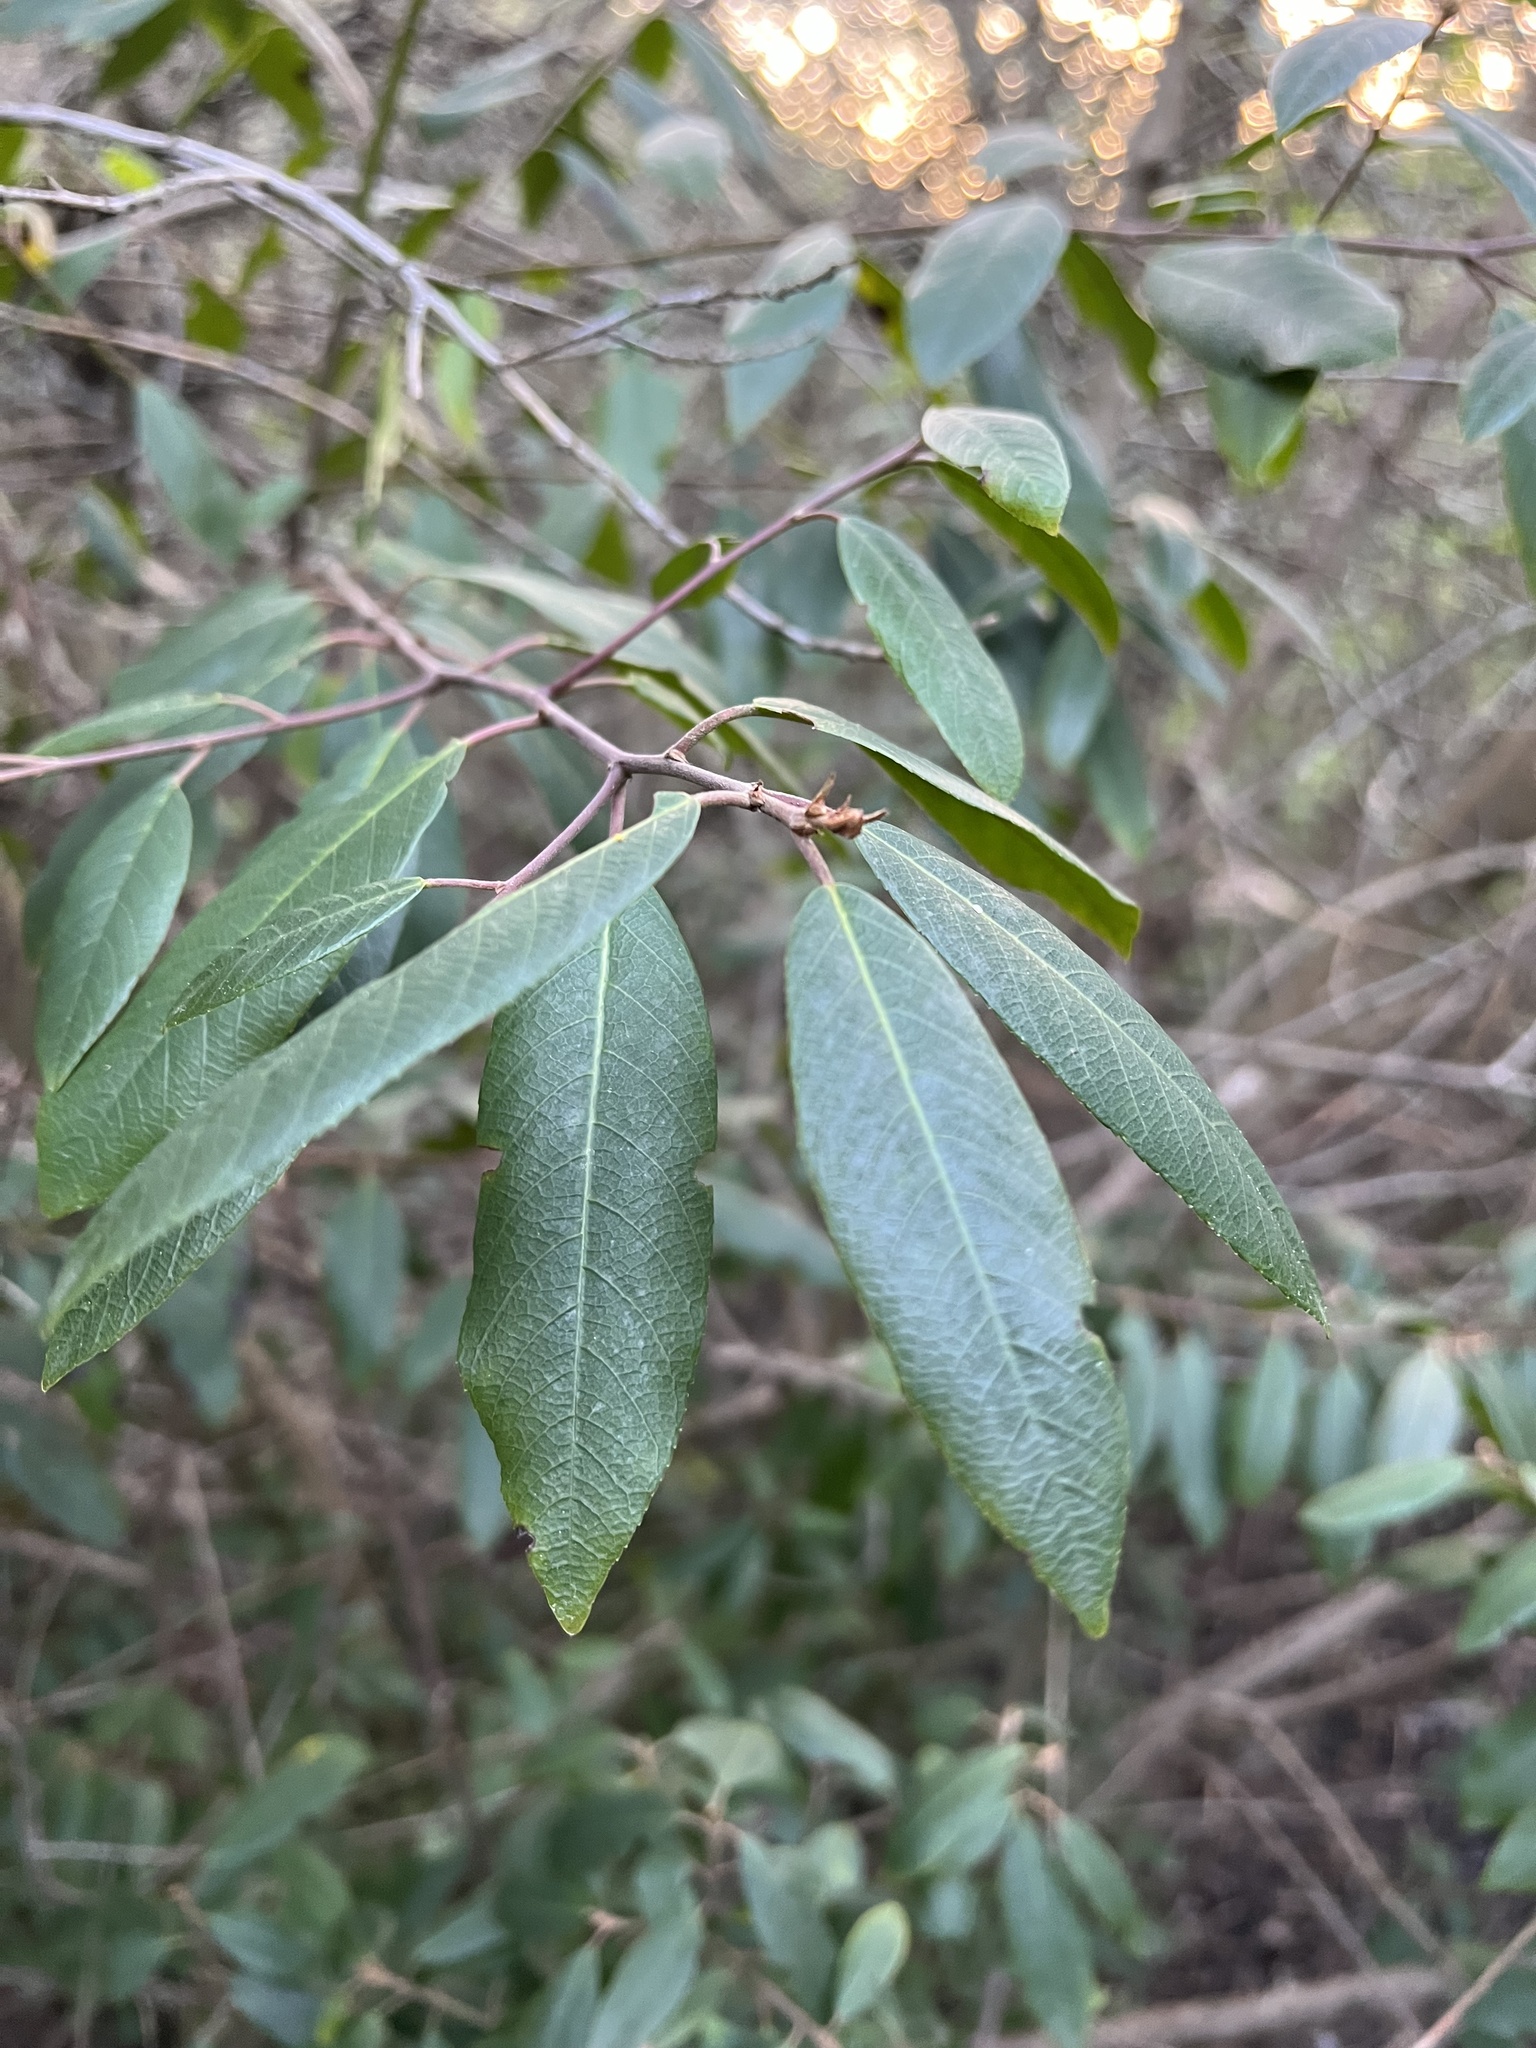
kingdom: Plantae
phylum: Tracheophyta
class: Magnoliopsida
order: Rosales
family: Rhamnaceae
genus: Frangula
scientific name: Frangula californica
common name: California buckthorn
